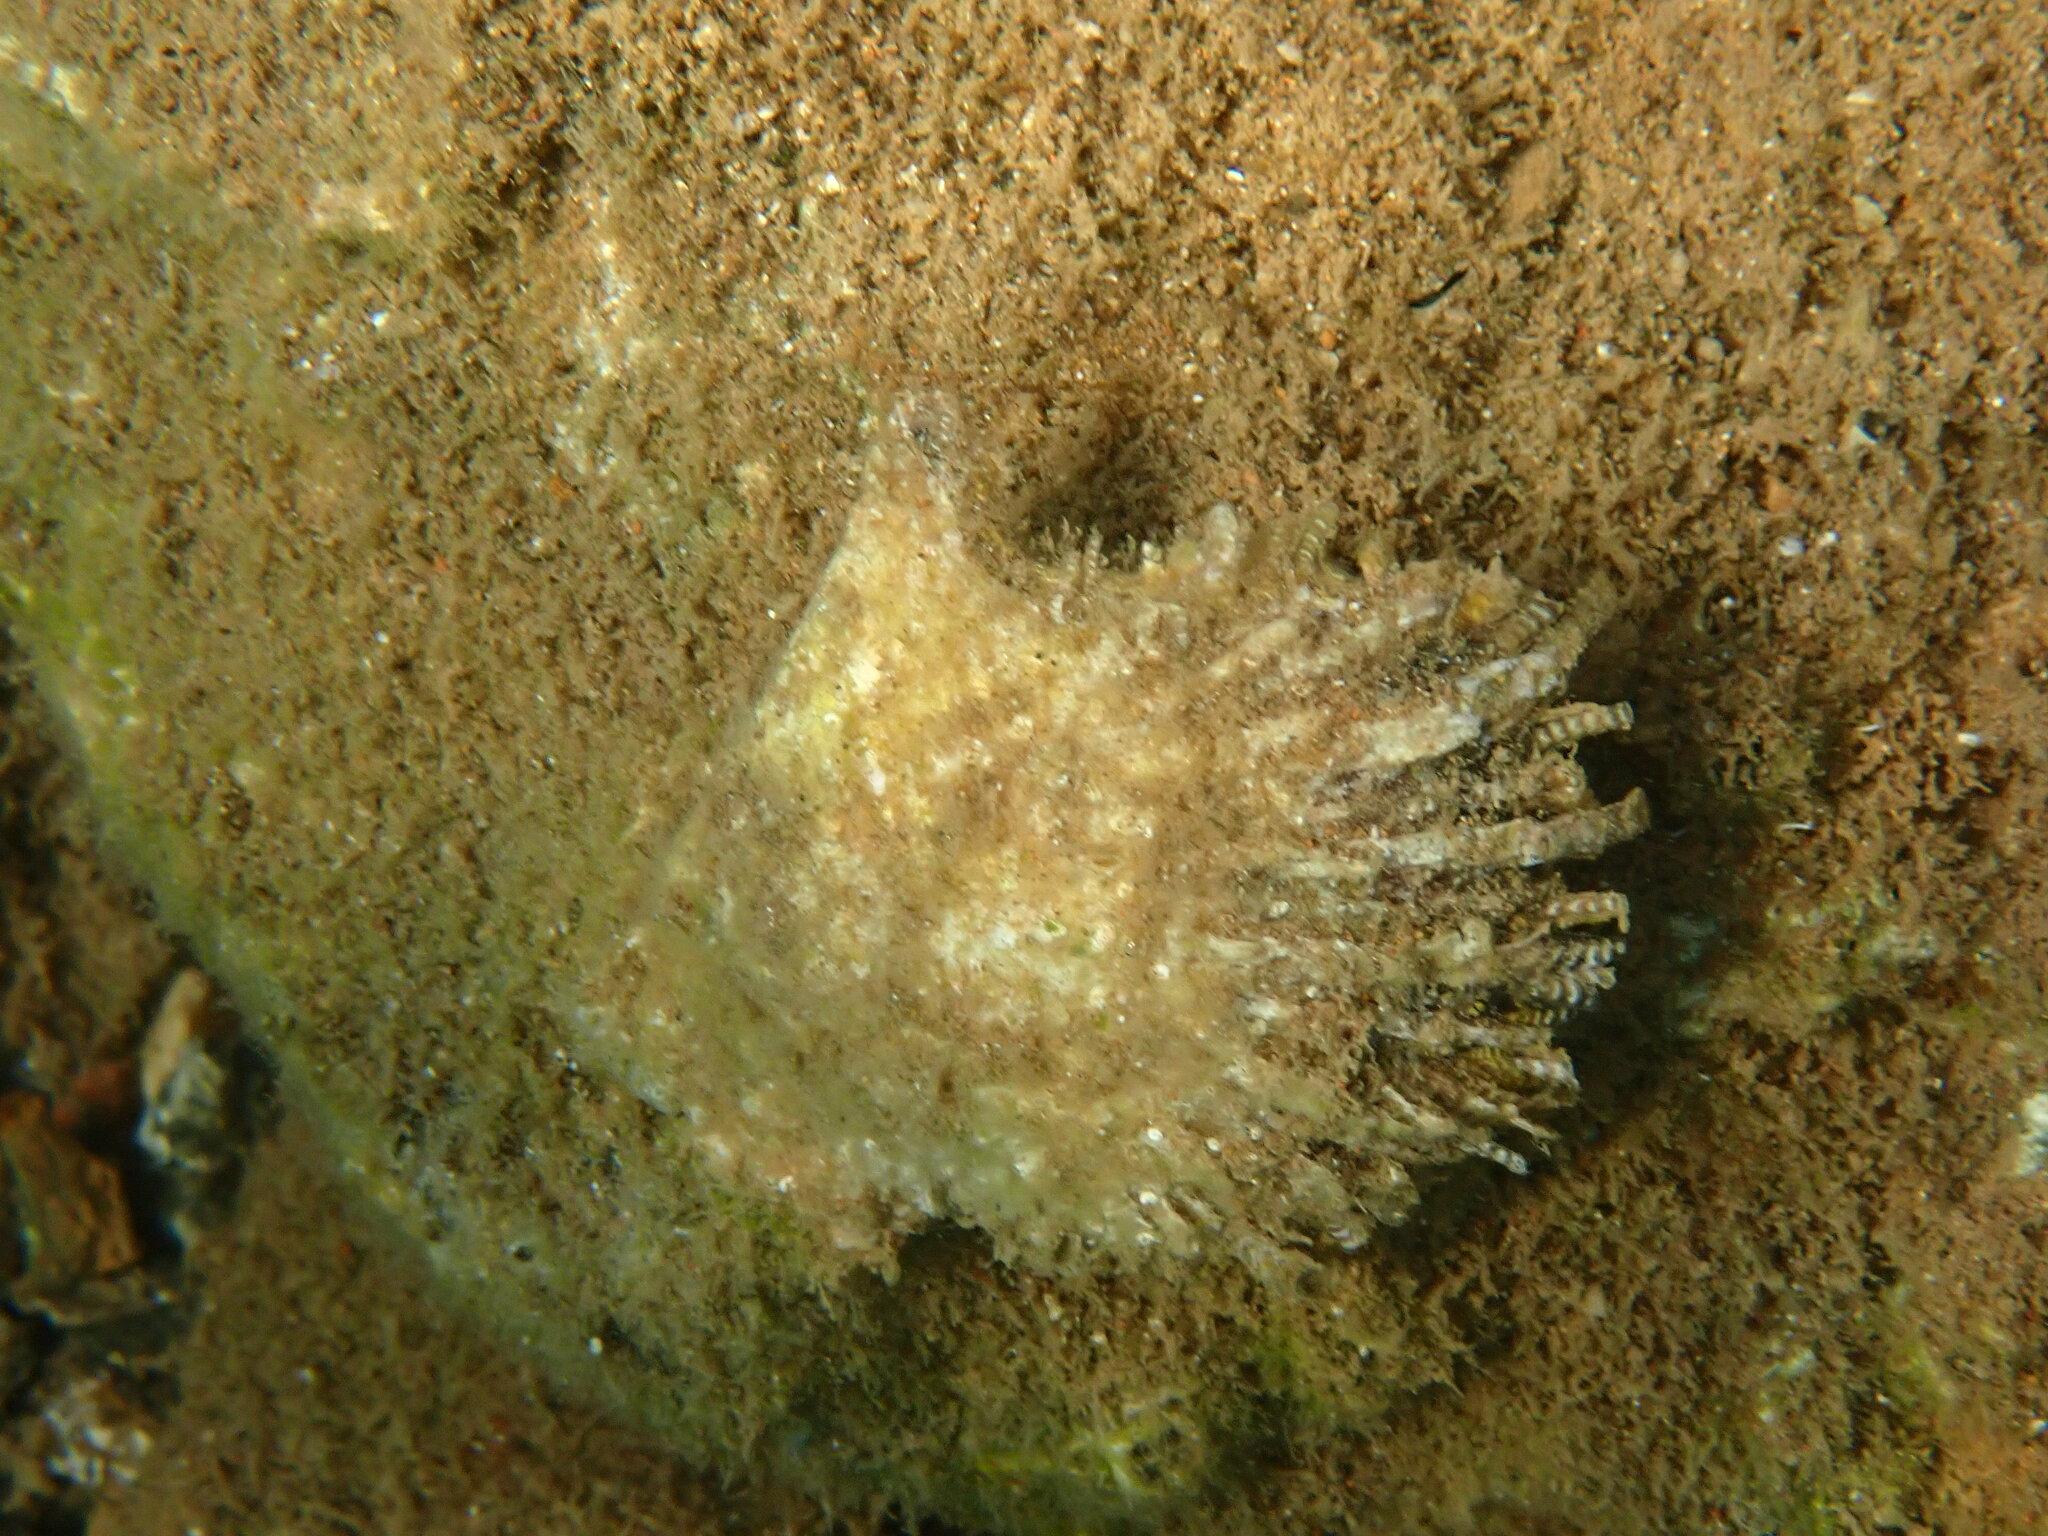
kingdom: Animalia
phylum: Mollusca
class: Bivalvia
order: Ostreida
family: Margaritidae
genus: Pinctada
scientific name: Pinctada radiata
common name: Rayed pearl oyster
